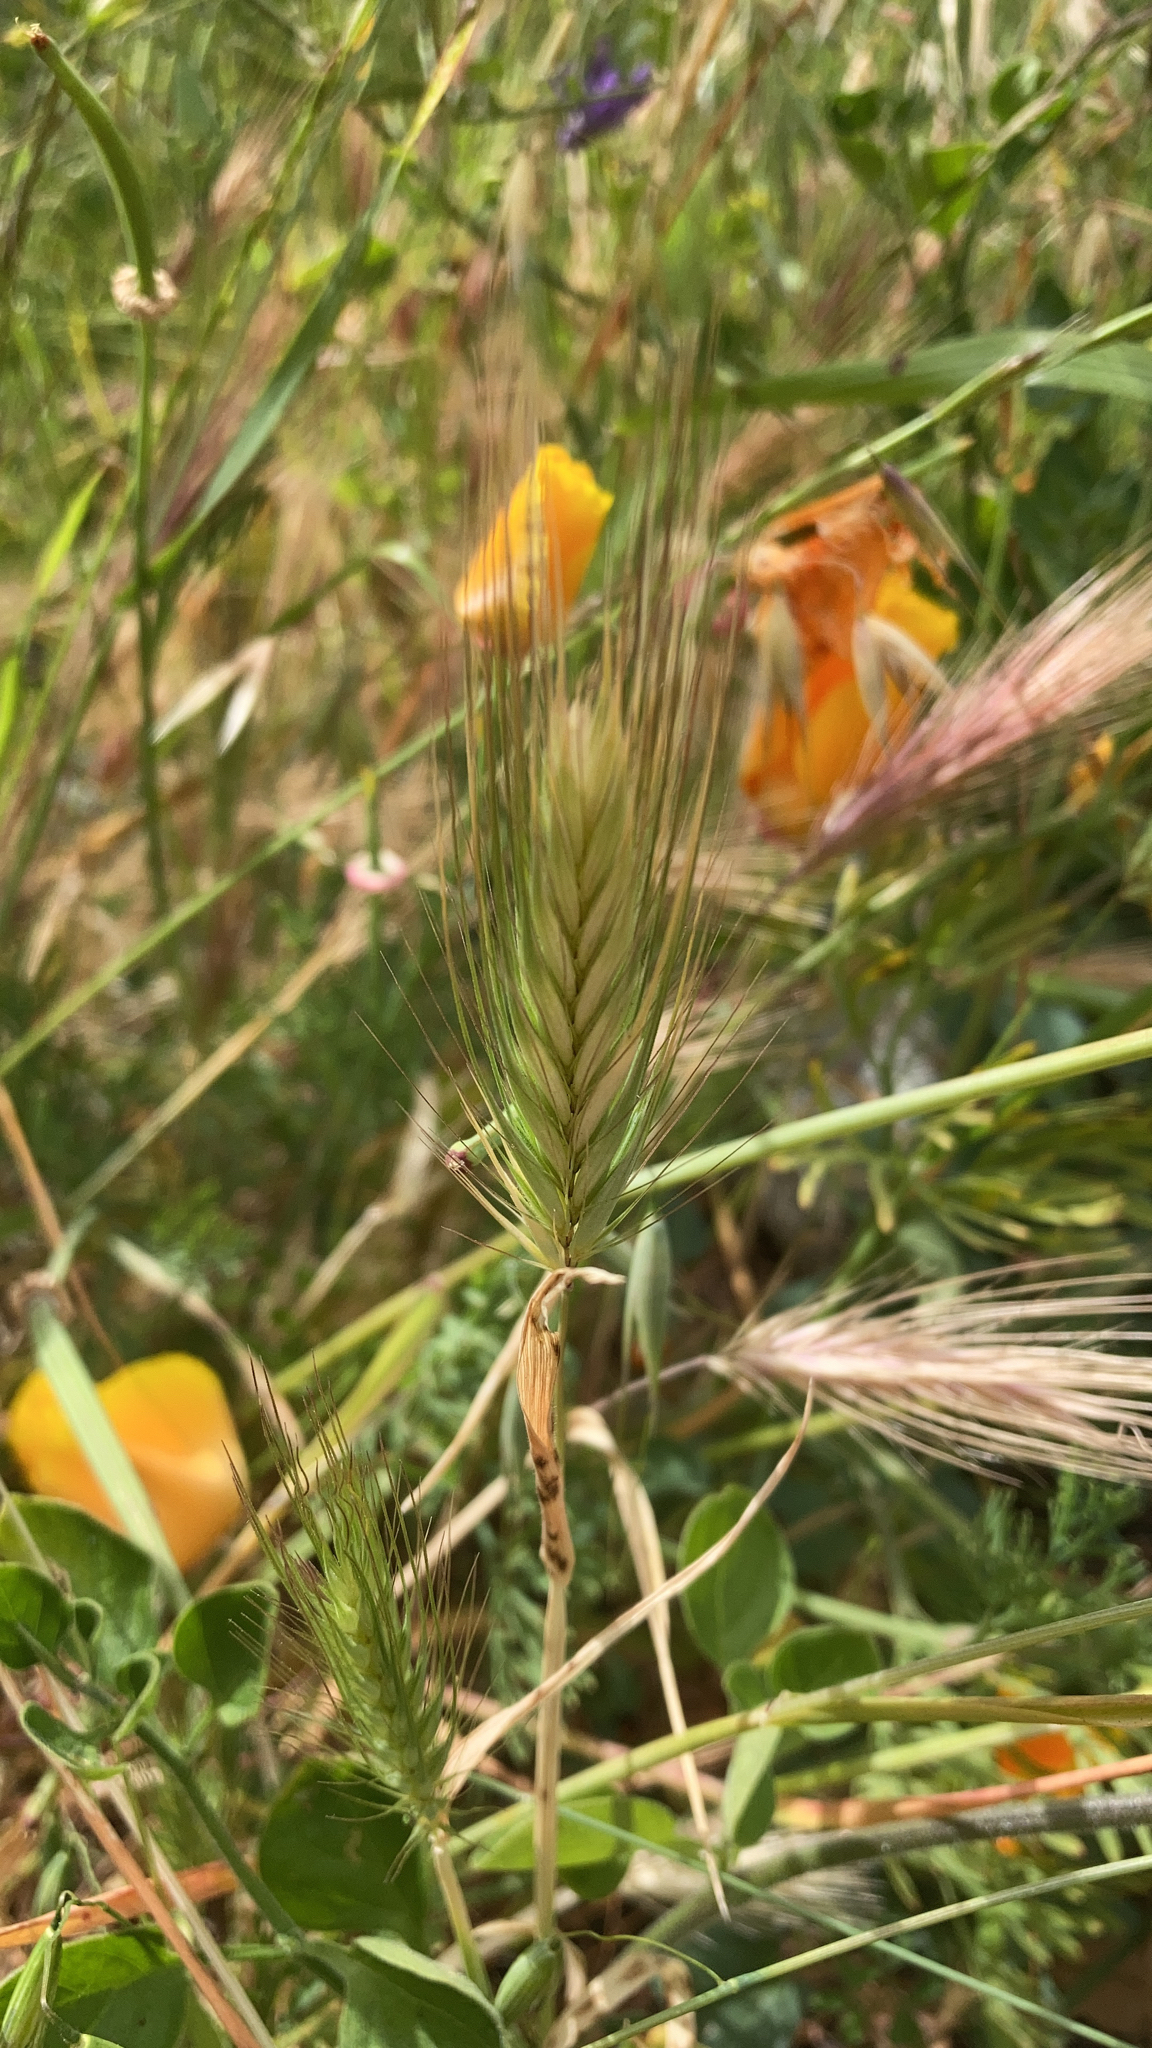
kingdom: Plantae
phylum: Tracheophyta
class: Liliopsida
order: Poales
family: Poaceae
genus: Hordeum
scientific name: Hordeum murinum
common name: Wall barley
